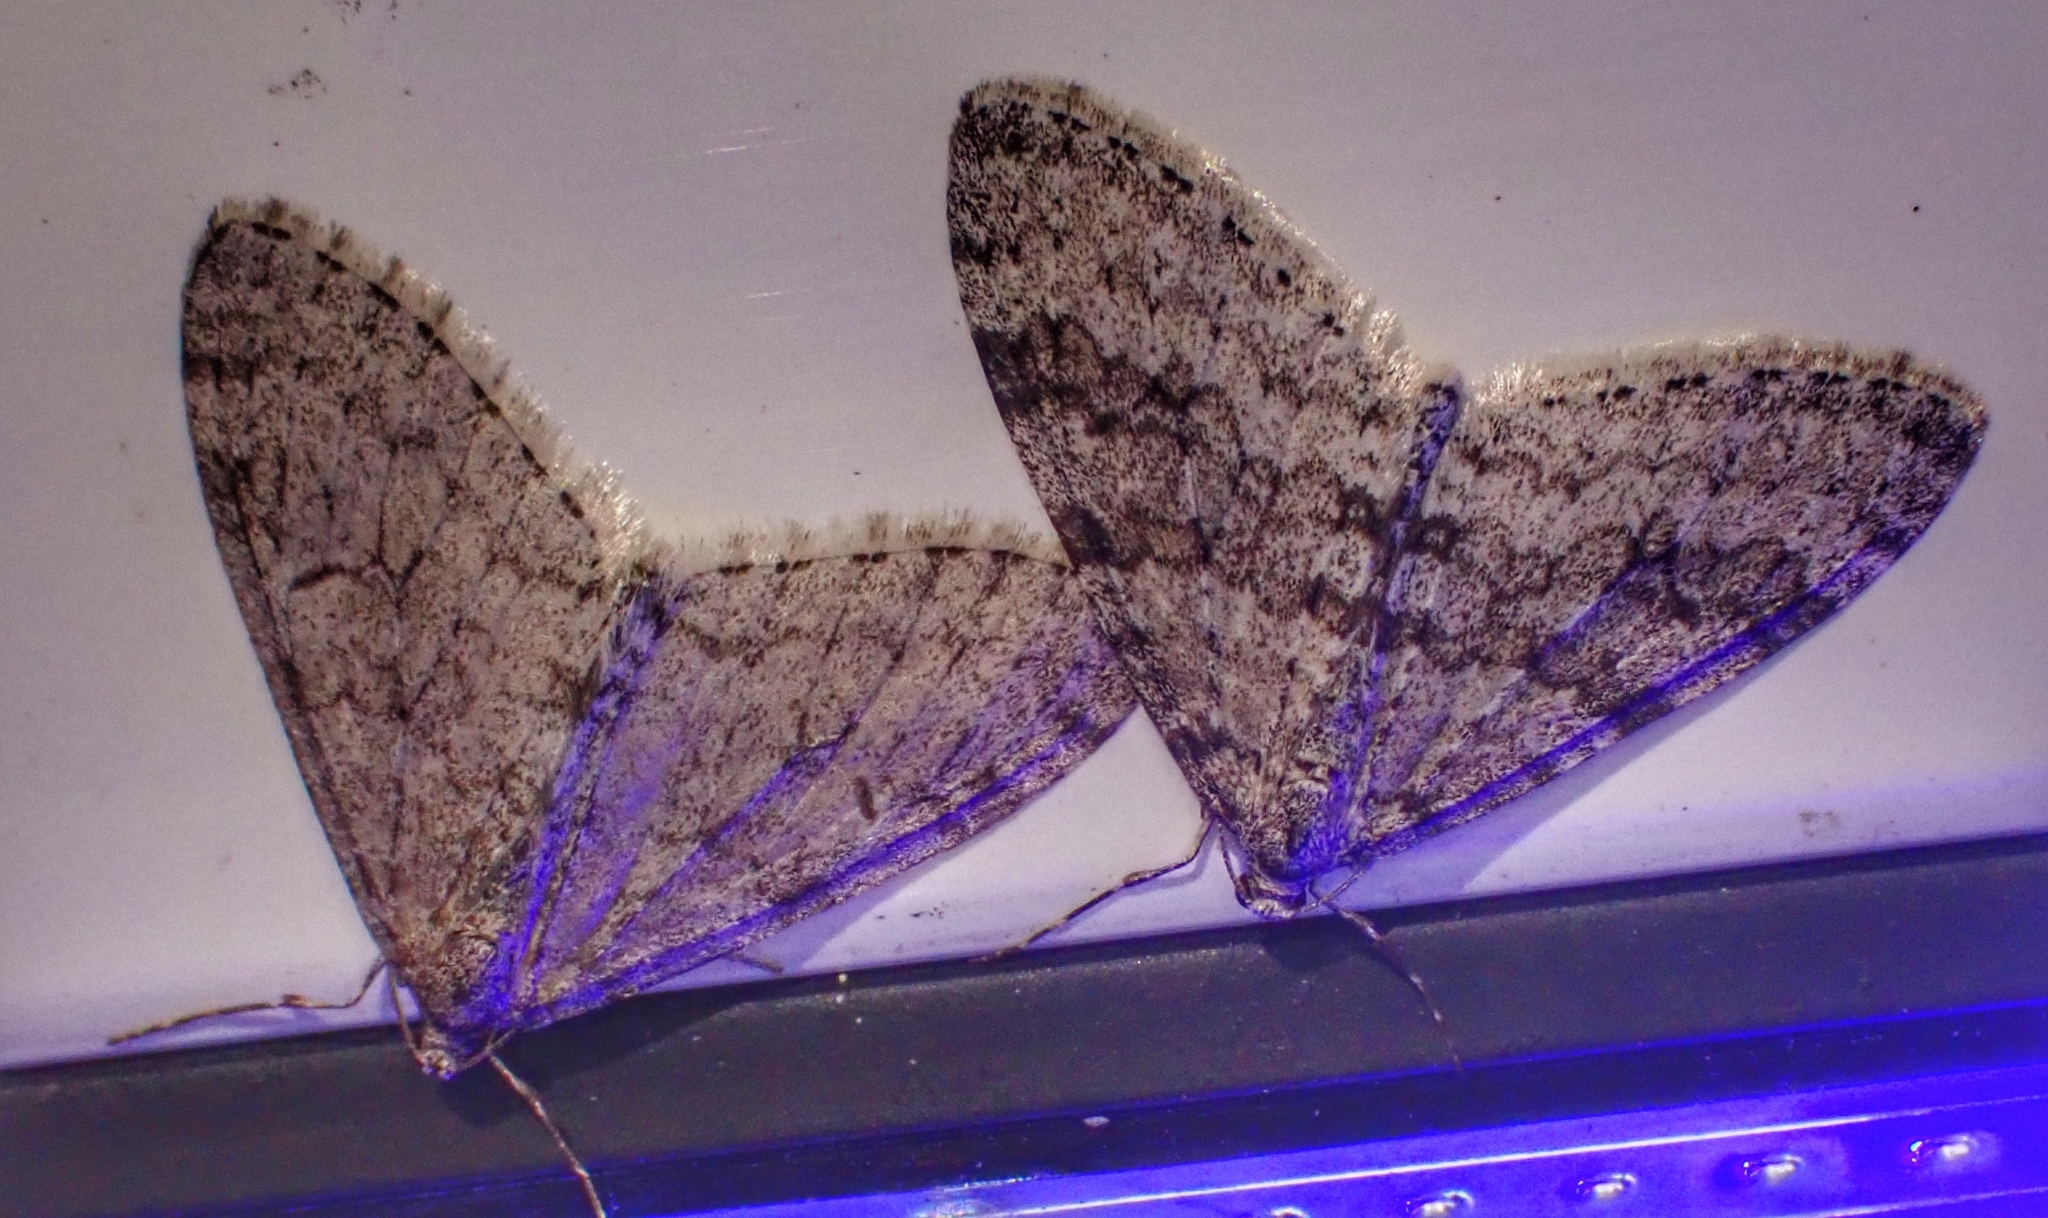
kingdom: Animalia
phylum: Arthropoda
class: Insecta
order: Lepidoptera
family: Geometridae
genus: Trichopteryx
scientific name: Trichopteryx carpinata
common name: Early tooth-striped
